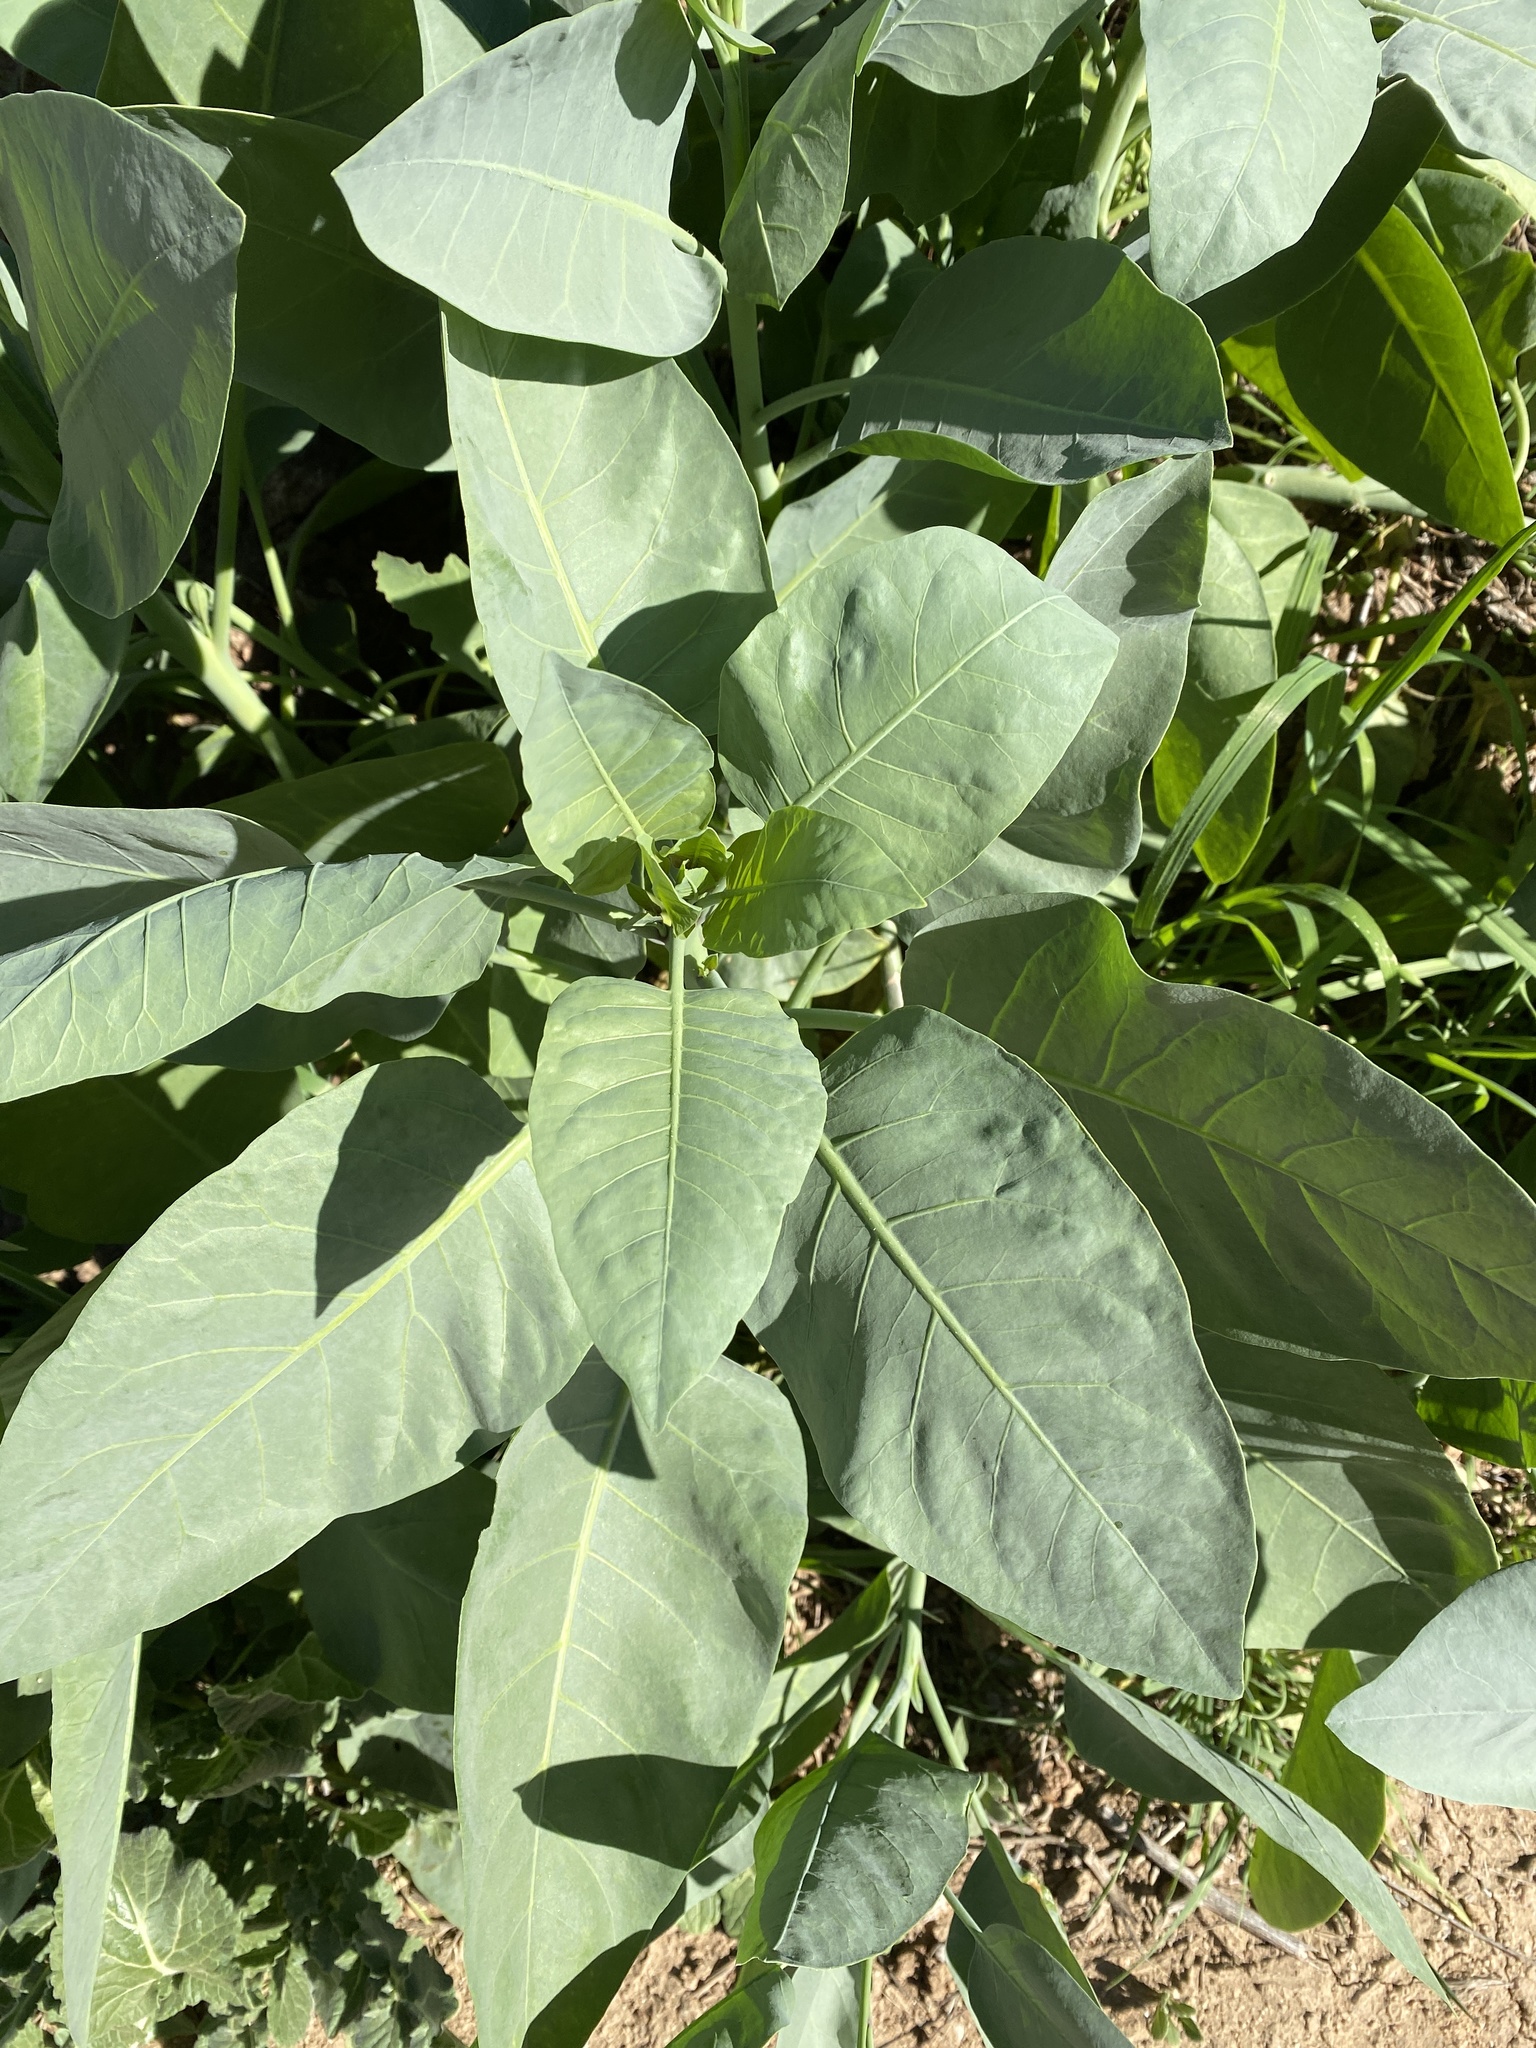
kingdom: Plantae
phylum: Tracheophyta
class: Magnoliopsida
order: Solanales
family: Solanaceae
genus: Nicotiana
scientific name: Nicotiana glauca
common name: Tree tobacco
